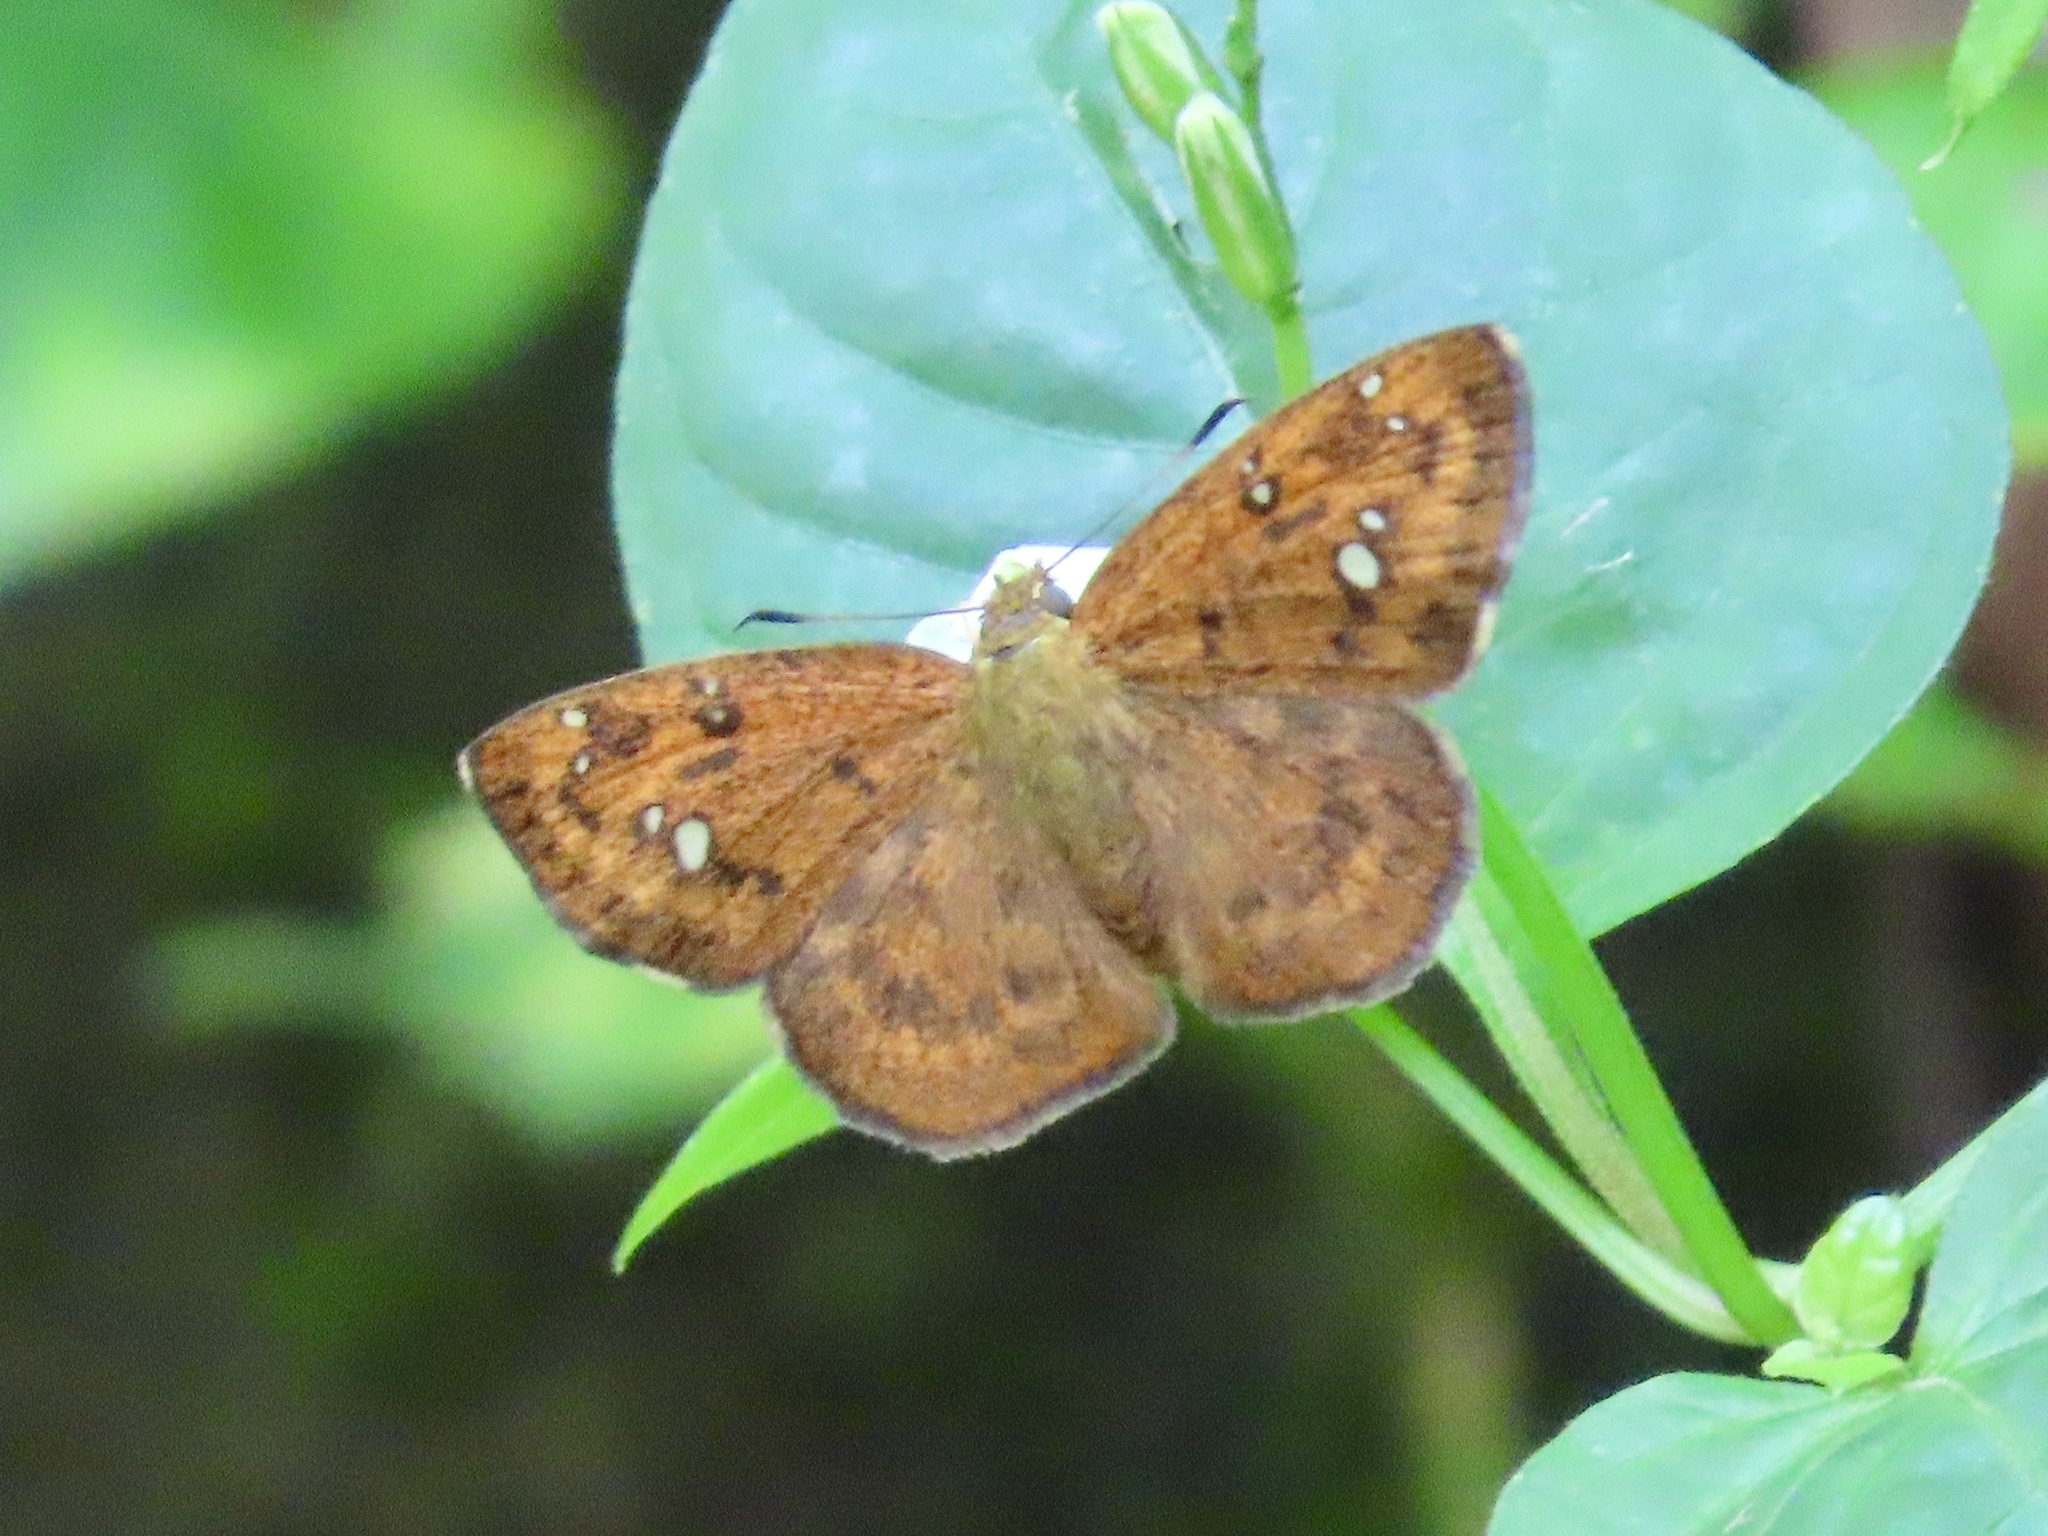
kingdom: Animalia
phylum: Arthropoda
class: Insecta
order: Lepidoptera
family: Hesperiidae
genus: Pseudocoladenia
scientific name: Pseudocoladenia dan
